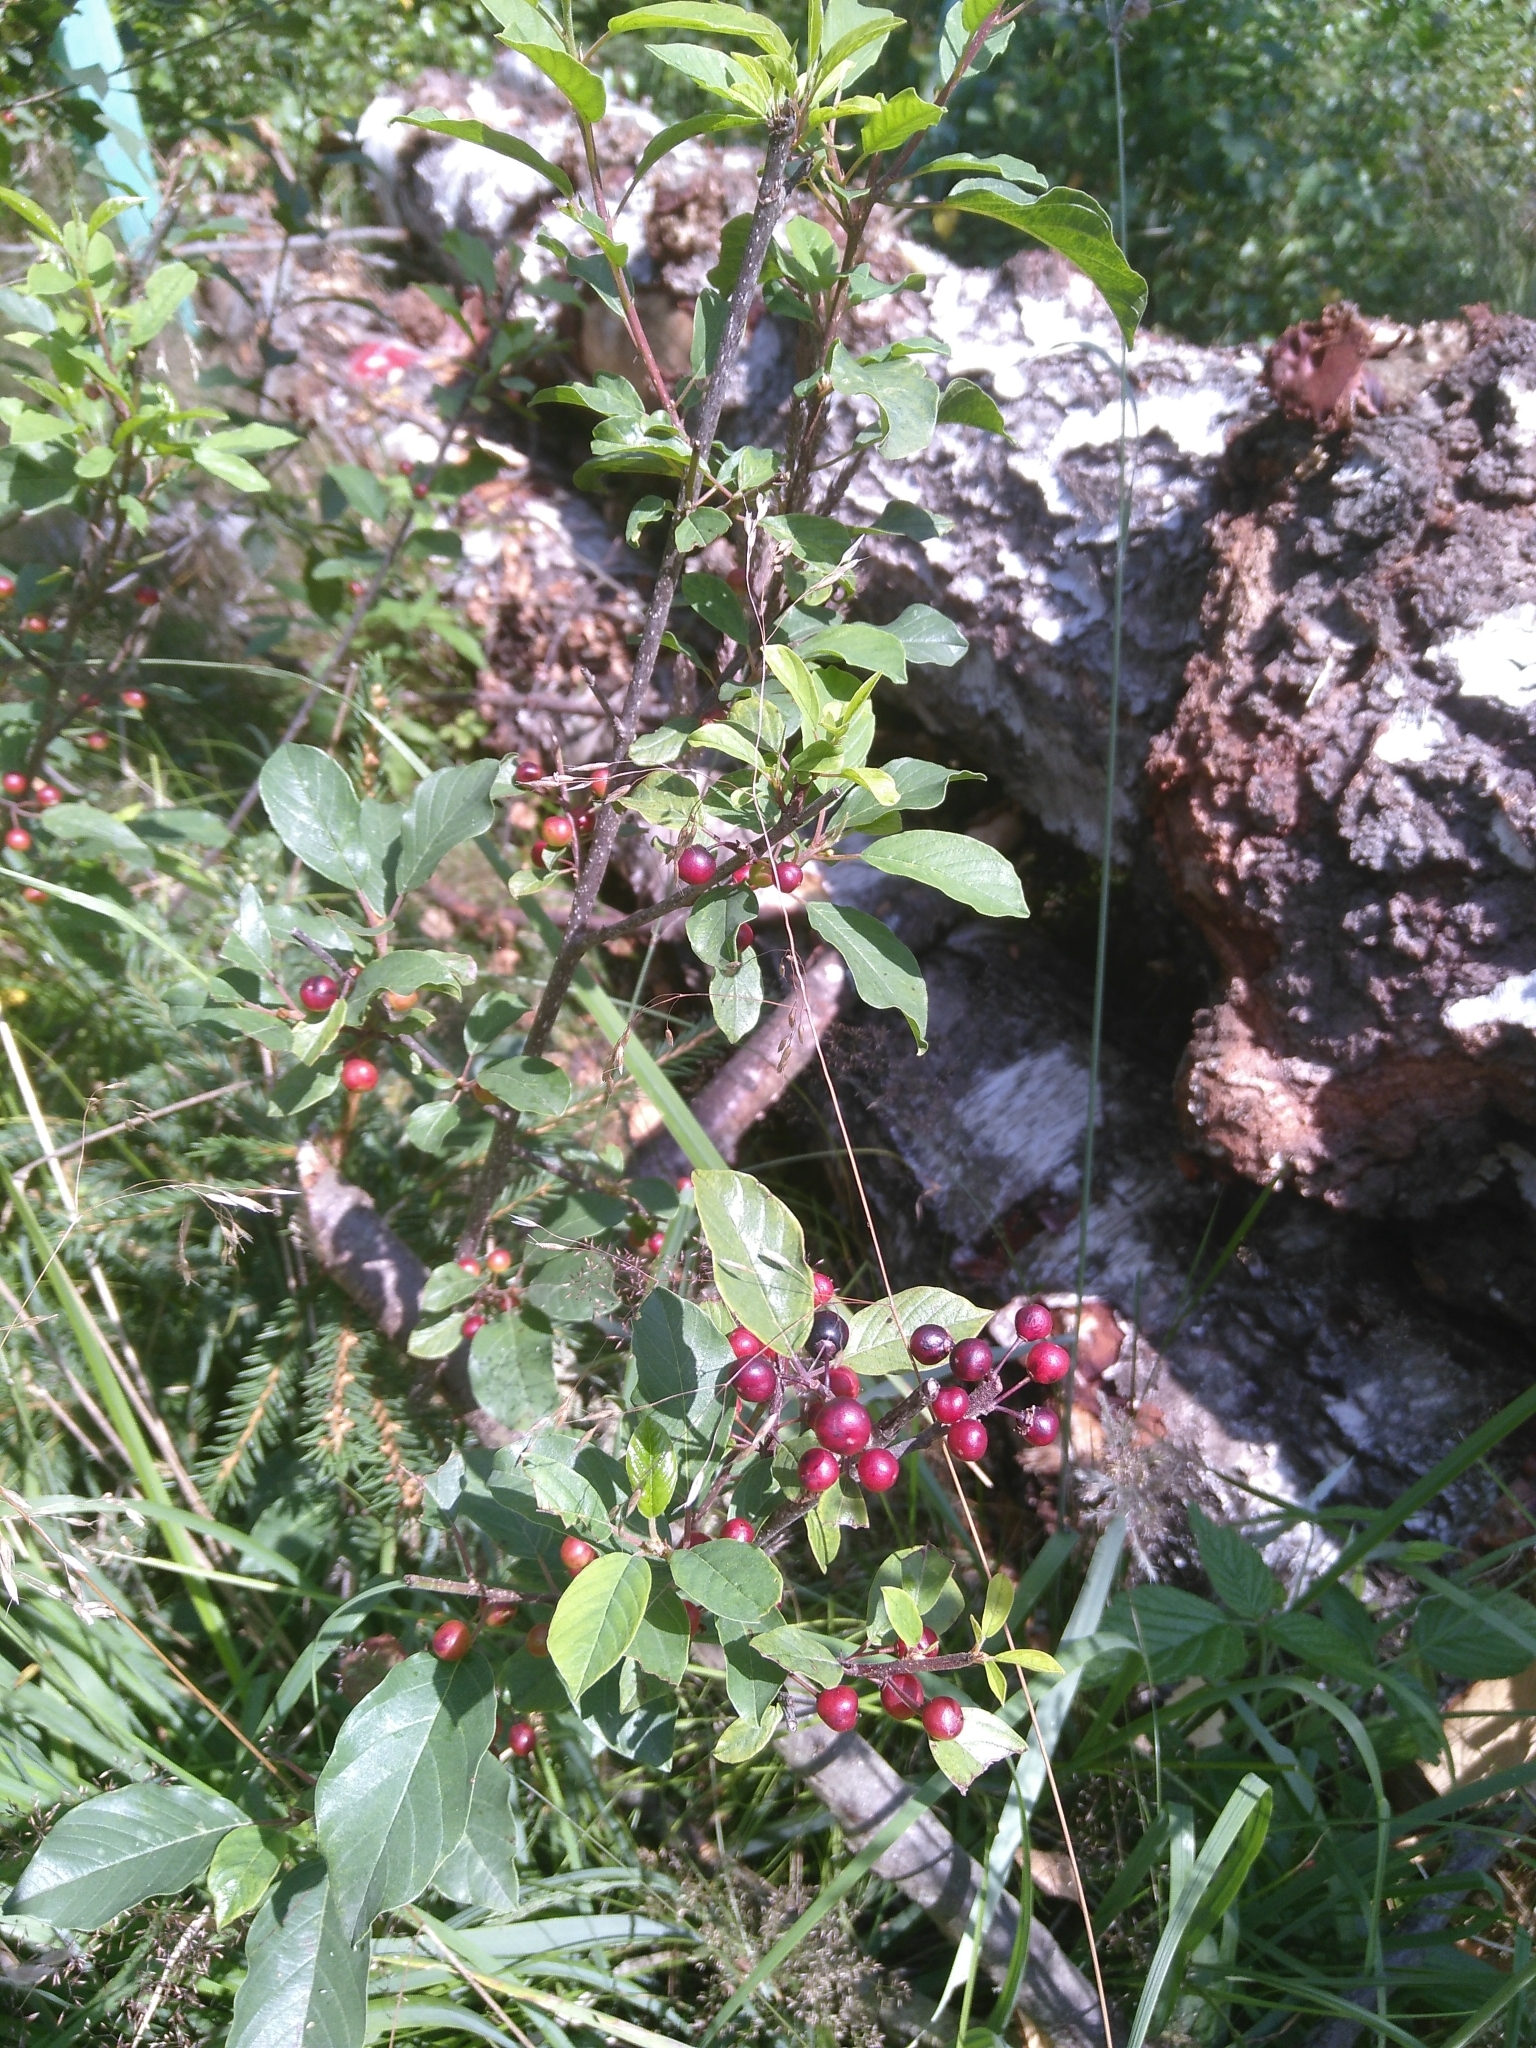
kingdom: Plantae
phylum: Tracheophyta
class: Magnoliopsida
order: Rosales
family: Rhamnaceae
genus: Frangula
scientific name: Frangula alnus
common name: Alder buckthorn
